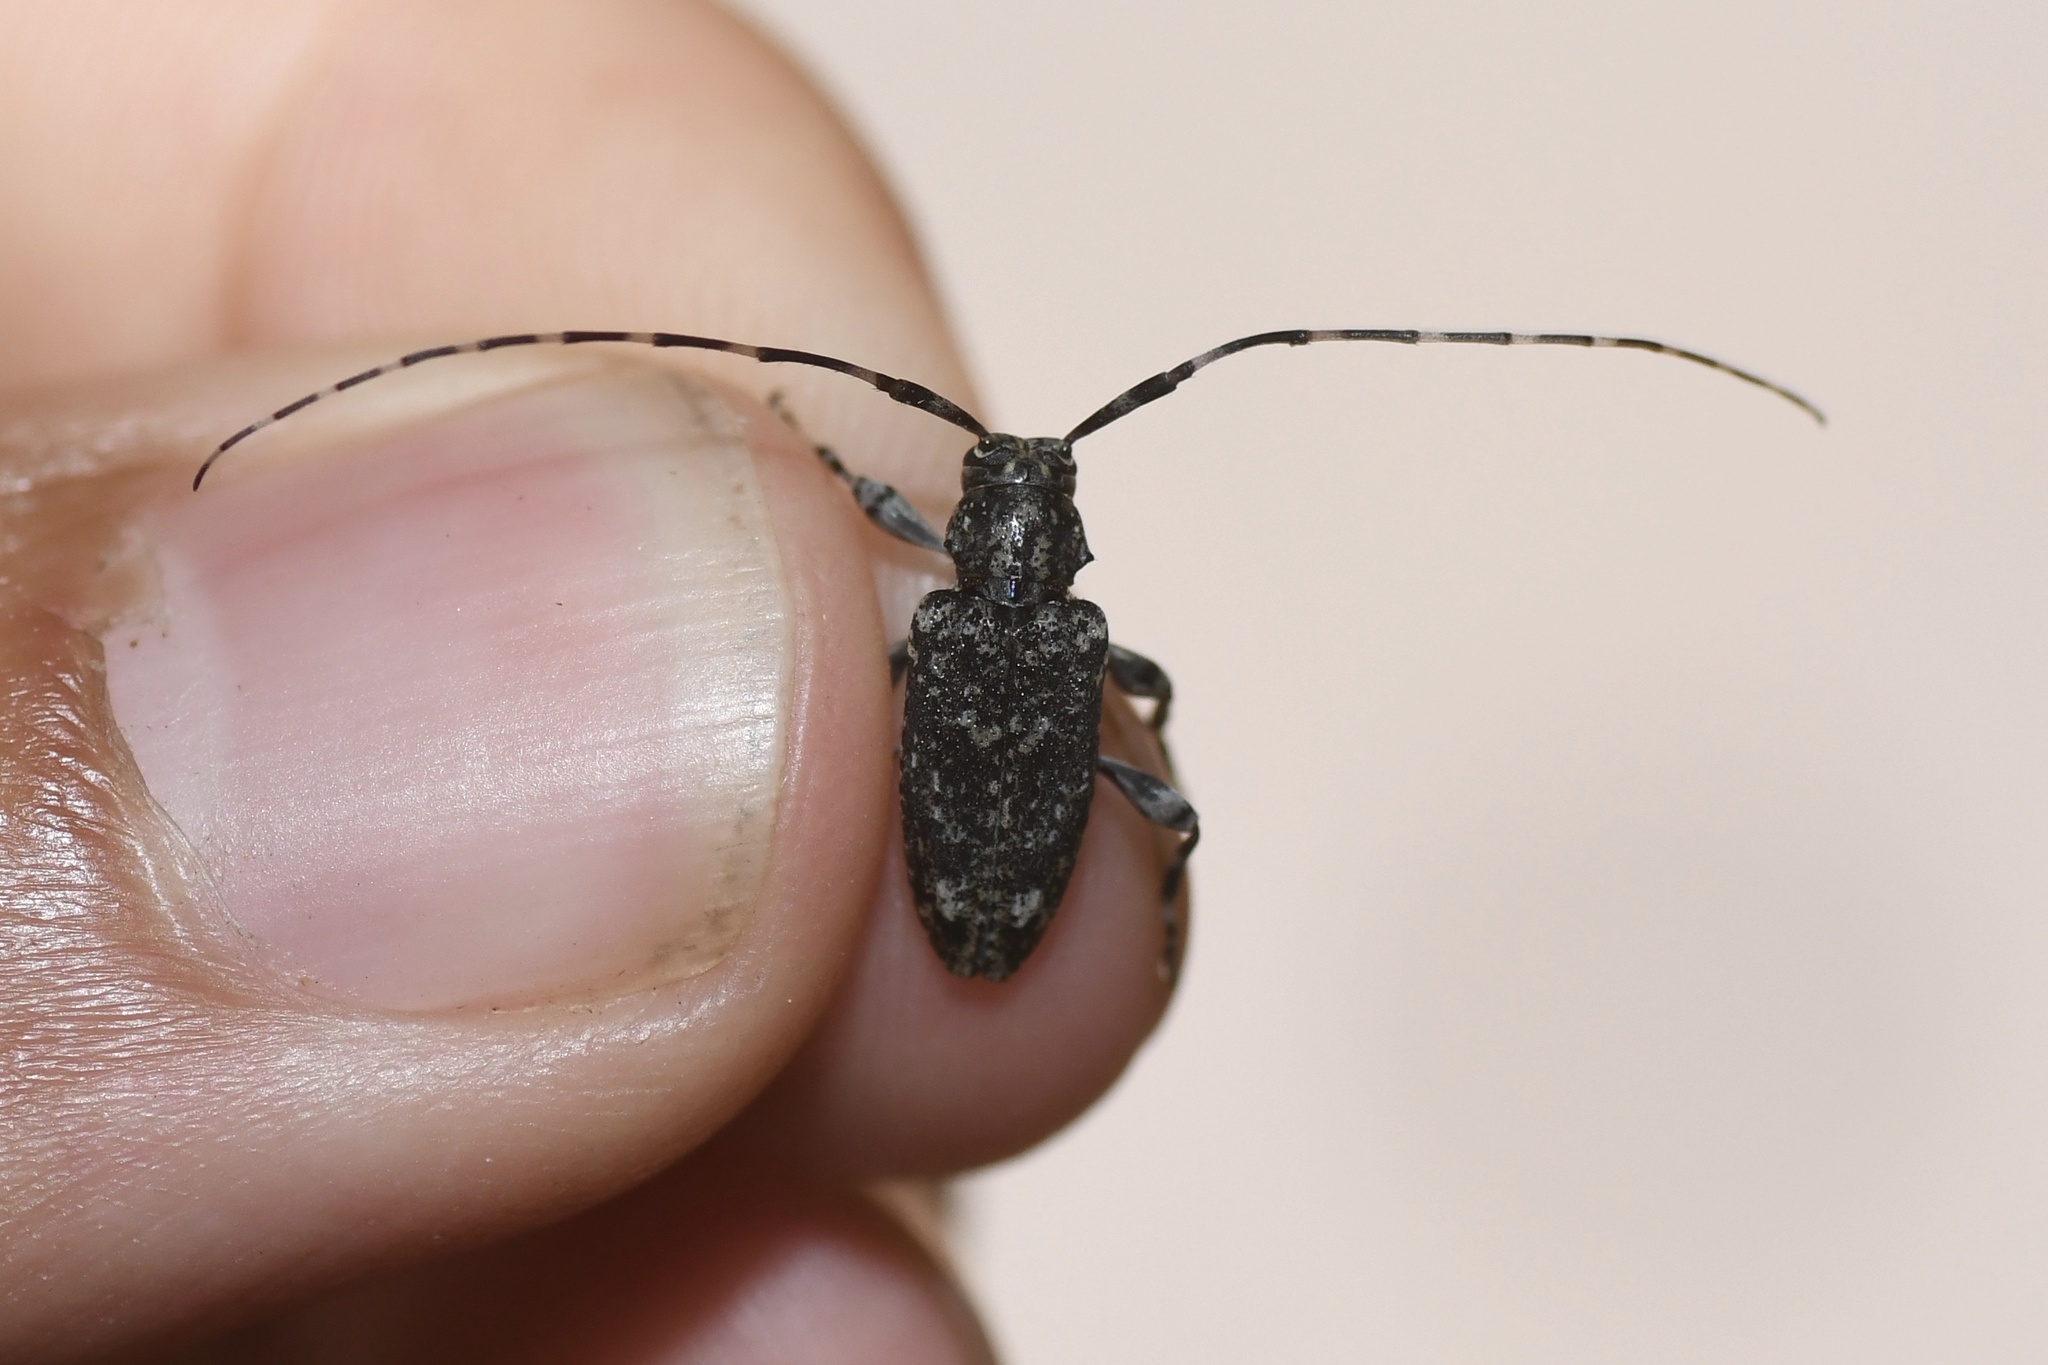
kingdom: Animalia
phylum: Arthropoda
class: Insecta
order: Coleoptera
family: Cerambycidae
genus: Astyleiopus
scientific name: Astyleiopus variegatus
